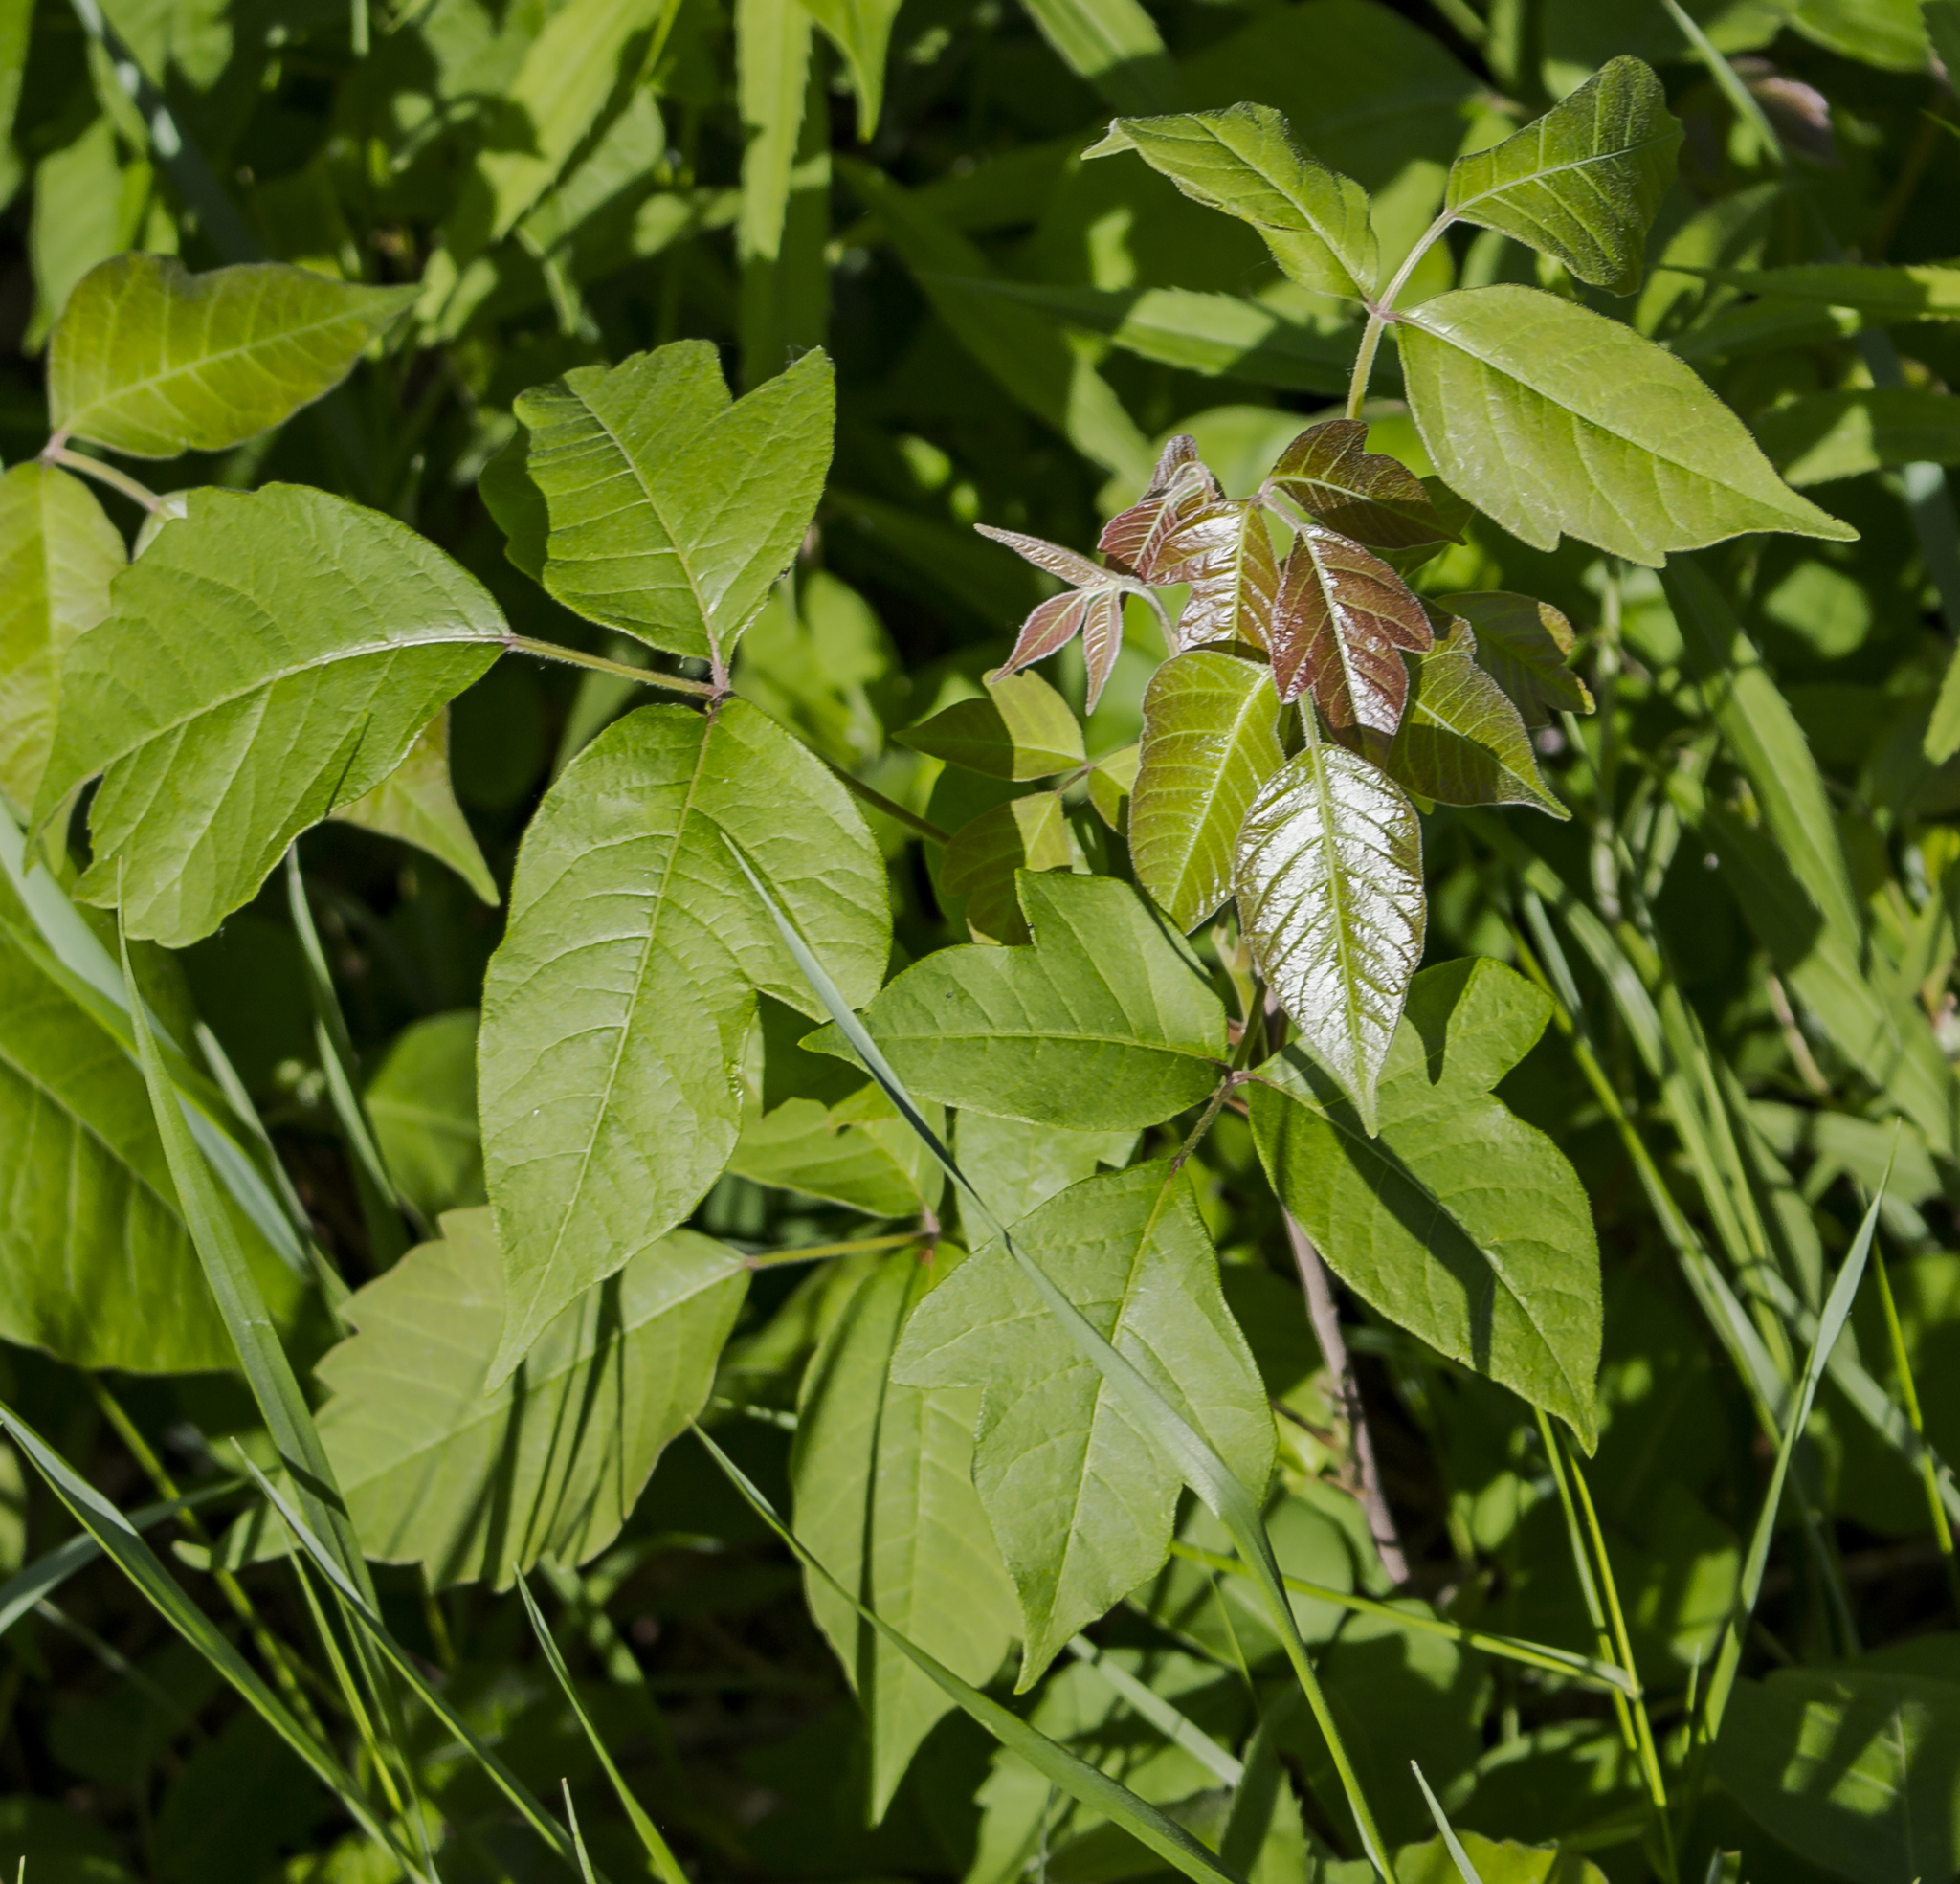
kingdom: Plantae
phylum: Tracheophyta
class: Magnoliopsida
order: Sapindales
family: Anacardiaceae
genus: Toxicodendron
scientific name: Toxicodendron rydbergii
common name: Rydberg's poison-ivy
